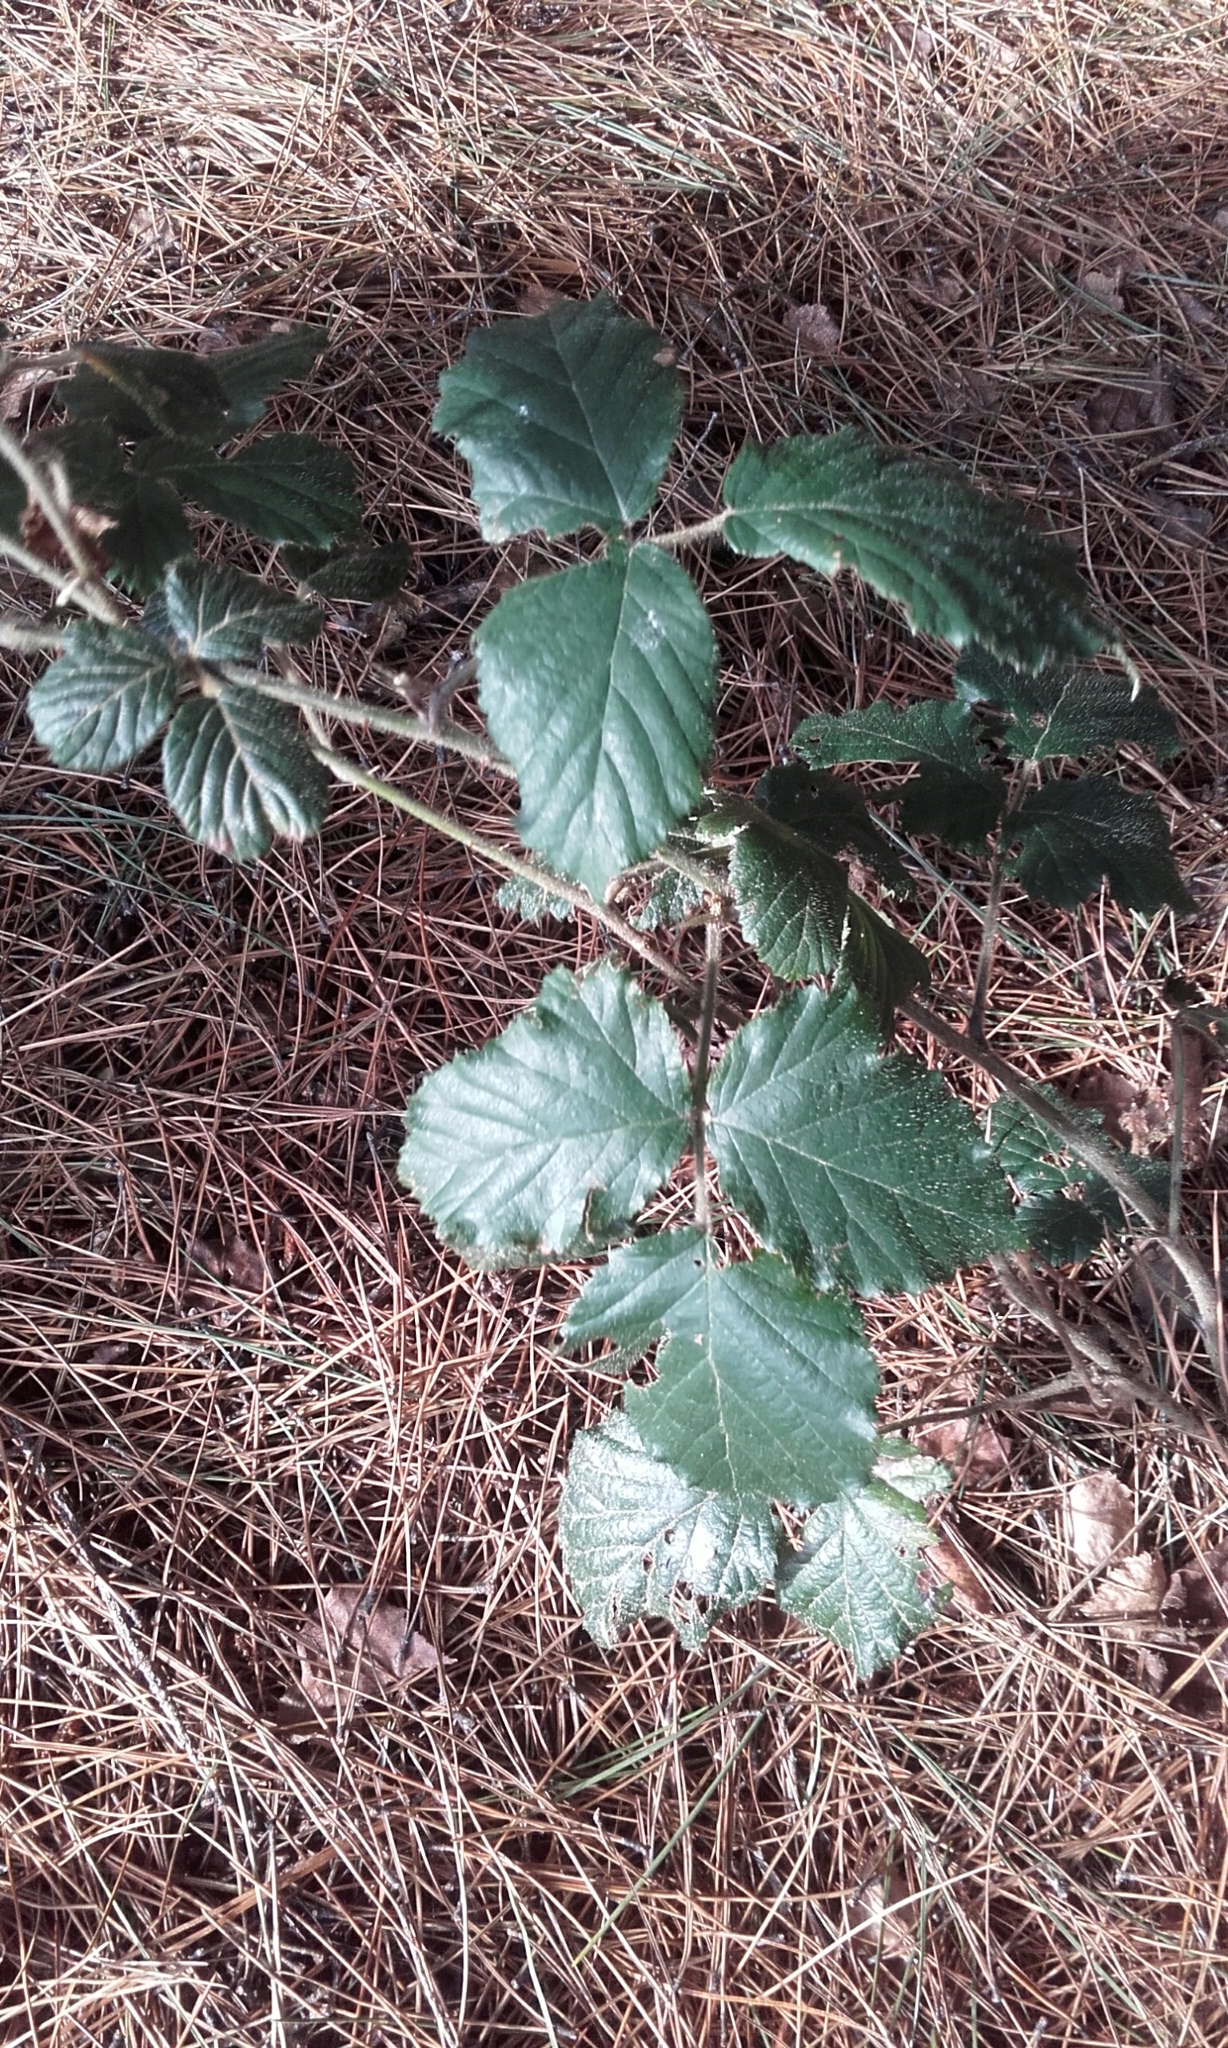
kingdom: Plantae
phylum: Tracheophyta
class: Magnoliopsida
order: Rosales
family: Rosaceae
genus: Rubus
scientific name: Rubus
